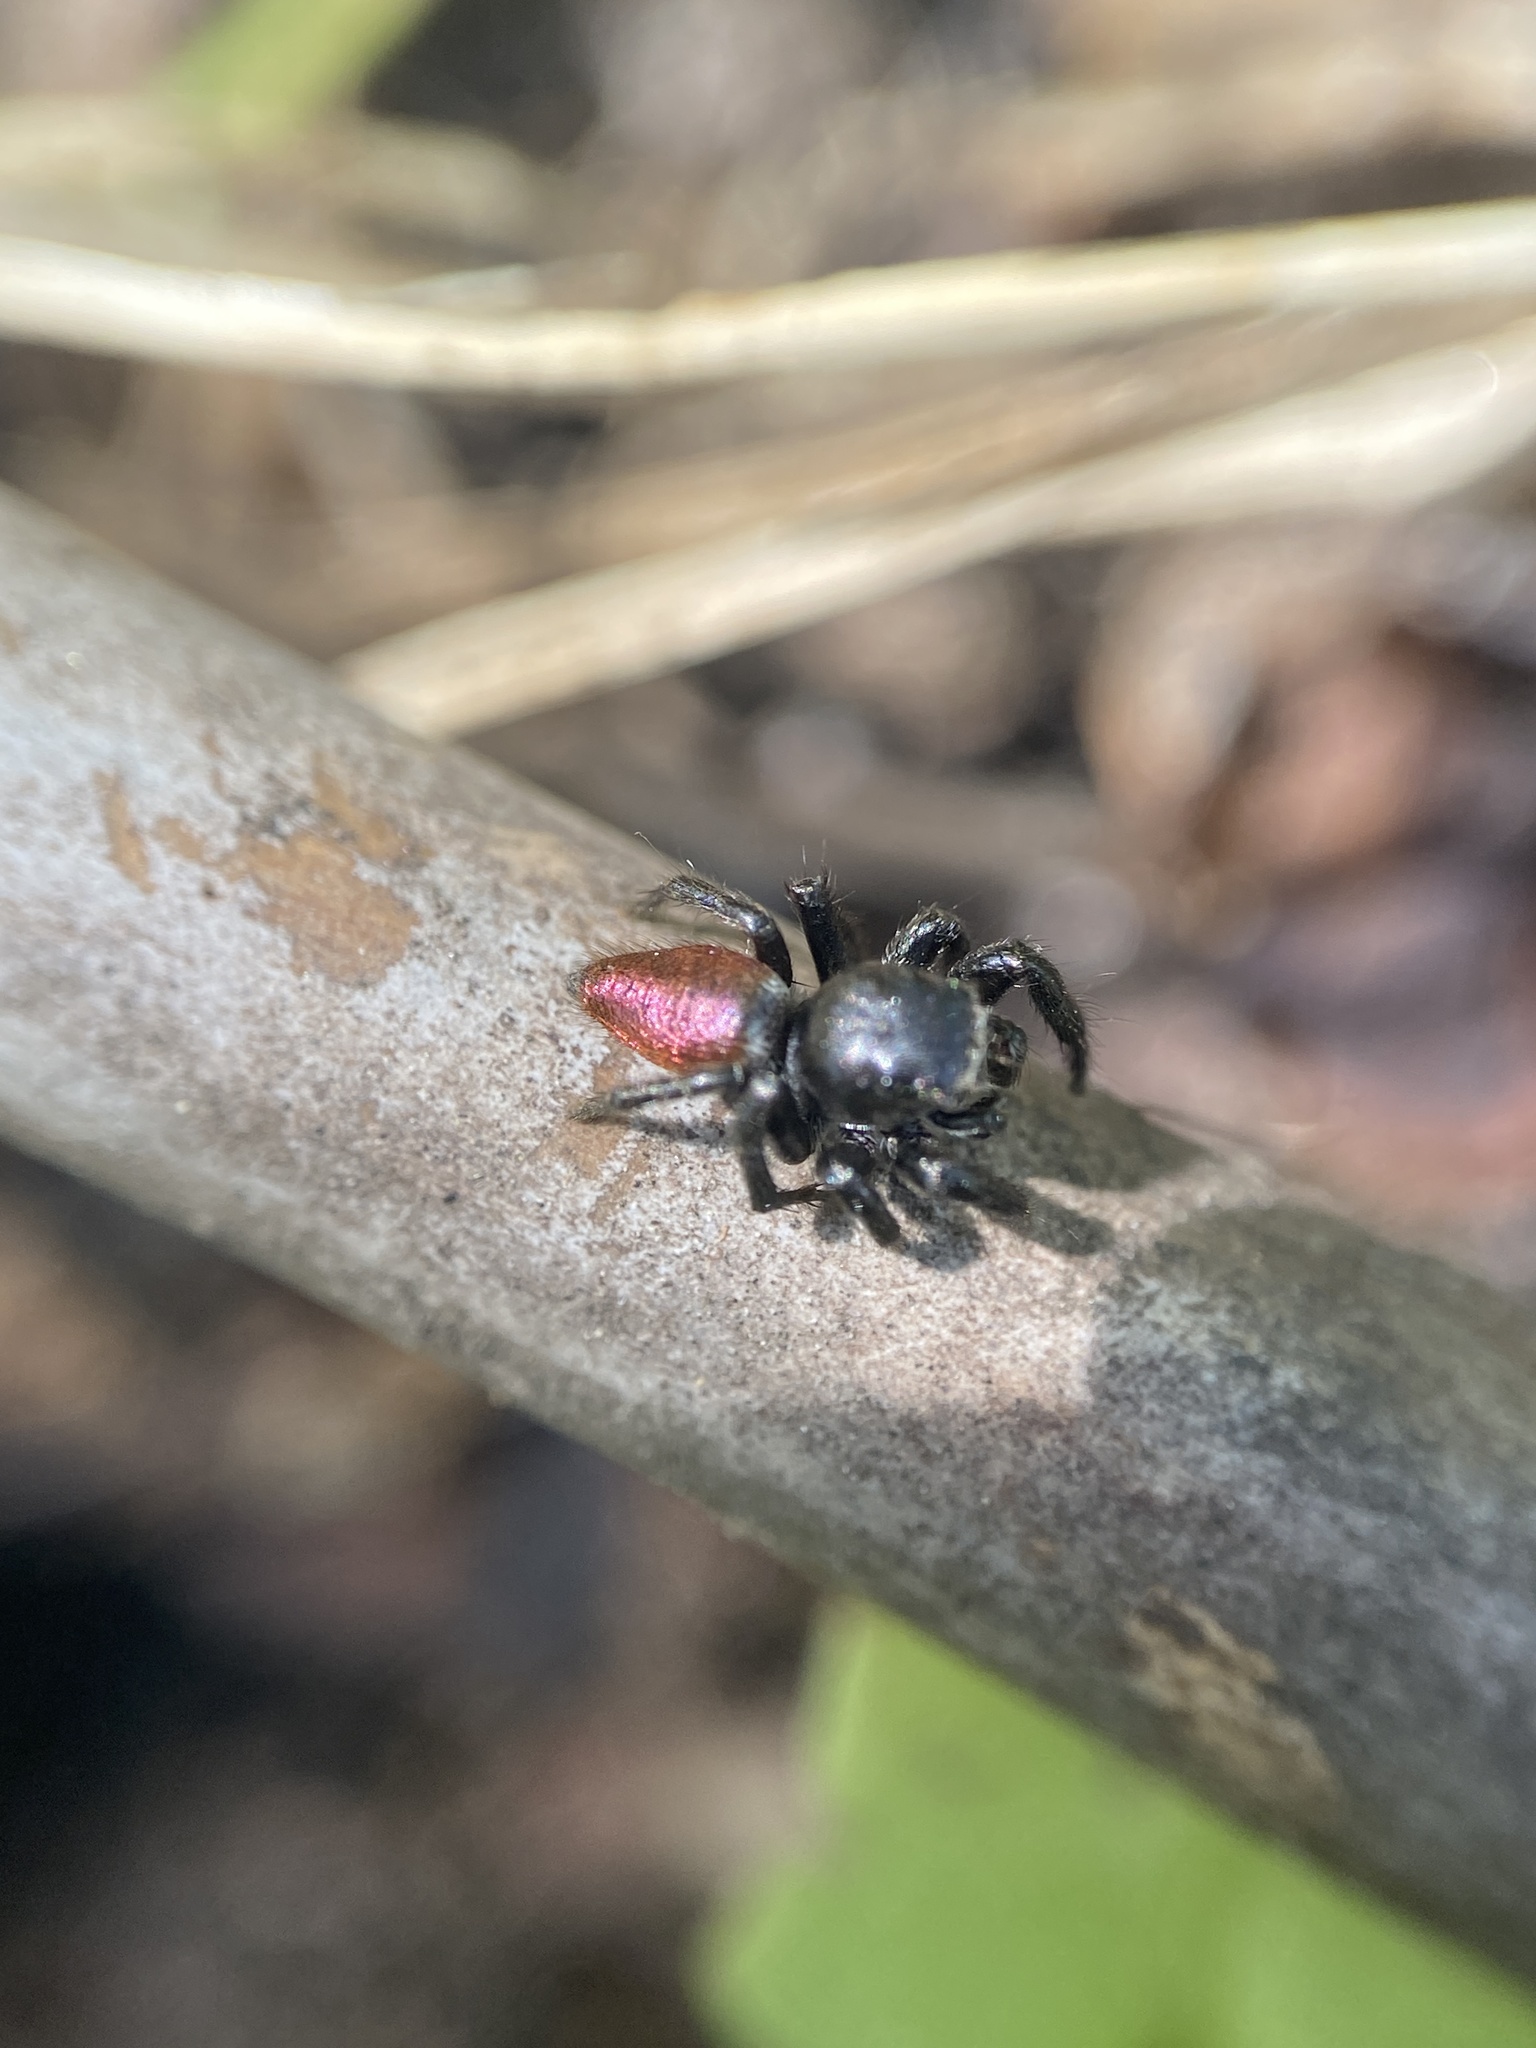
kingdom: Animalia
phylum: Arthropoda
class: Arachnida
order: Araneae
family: Salticidae
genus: Habronattus
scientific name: Habronattus decorus
